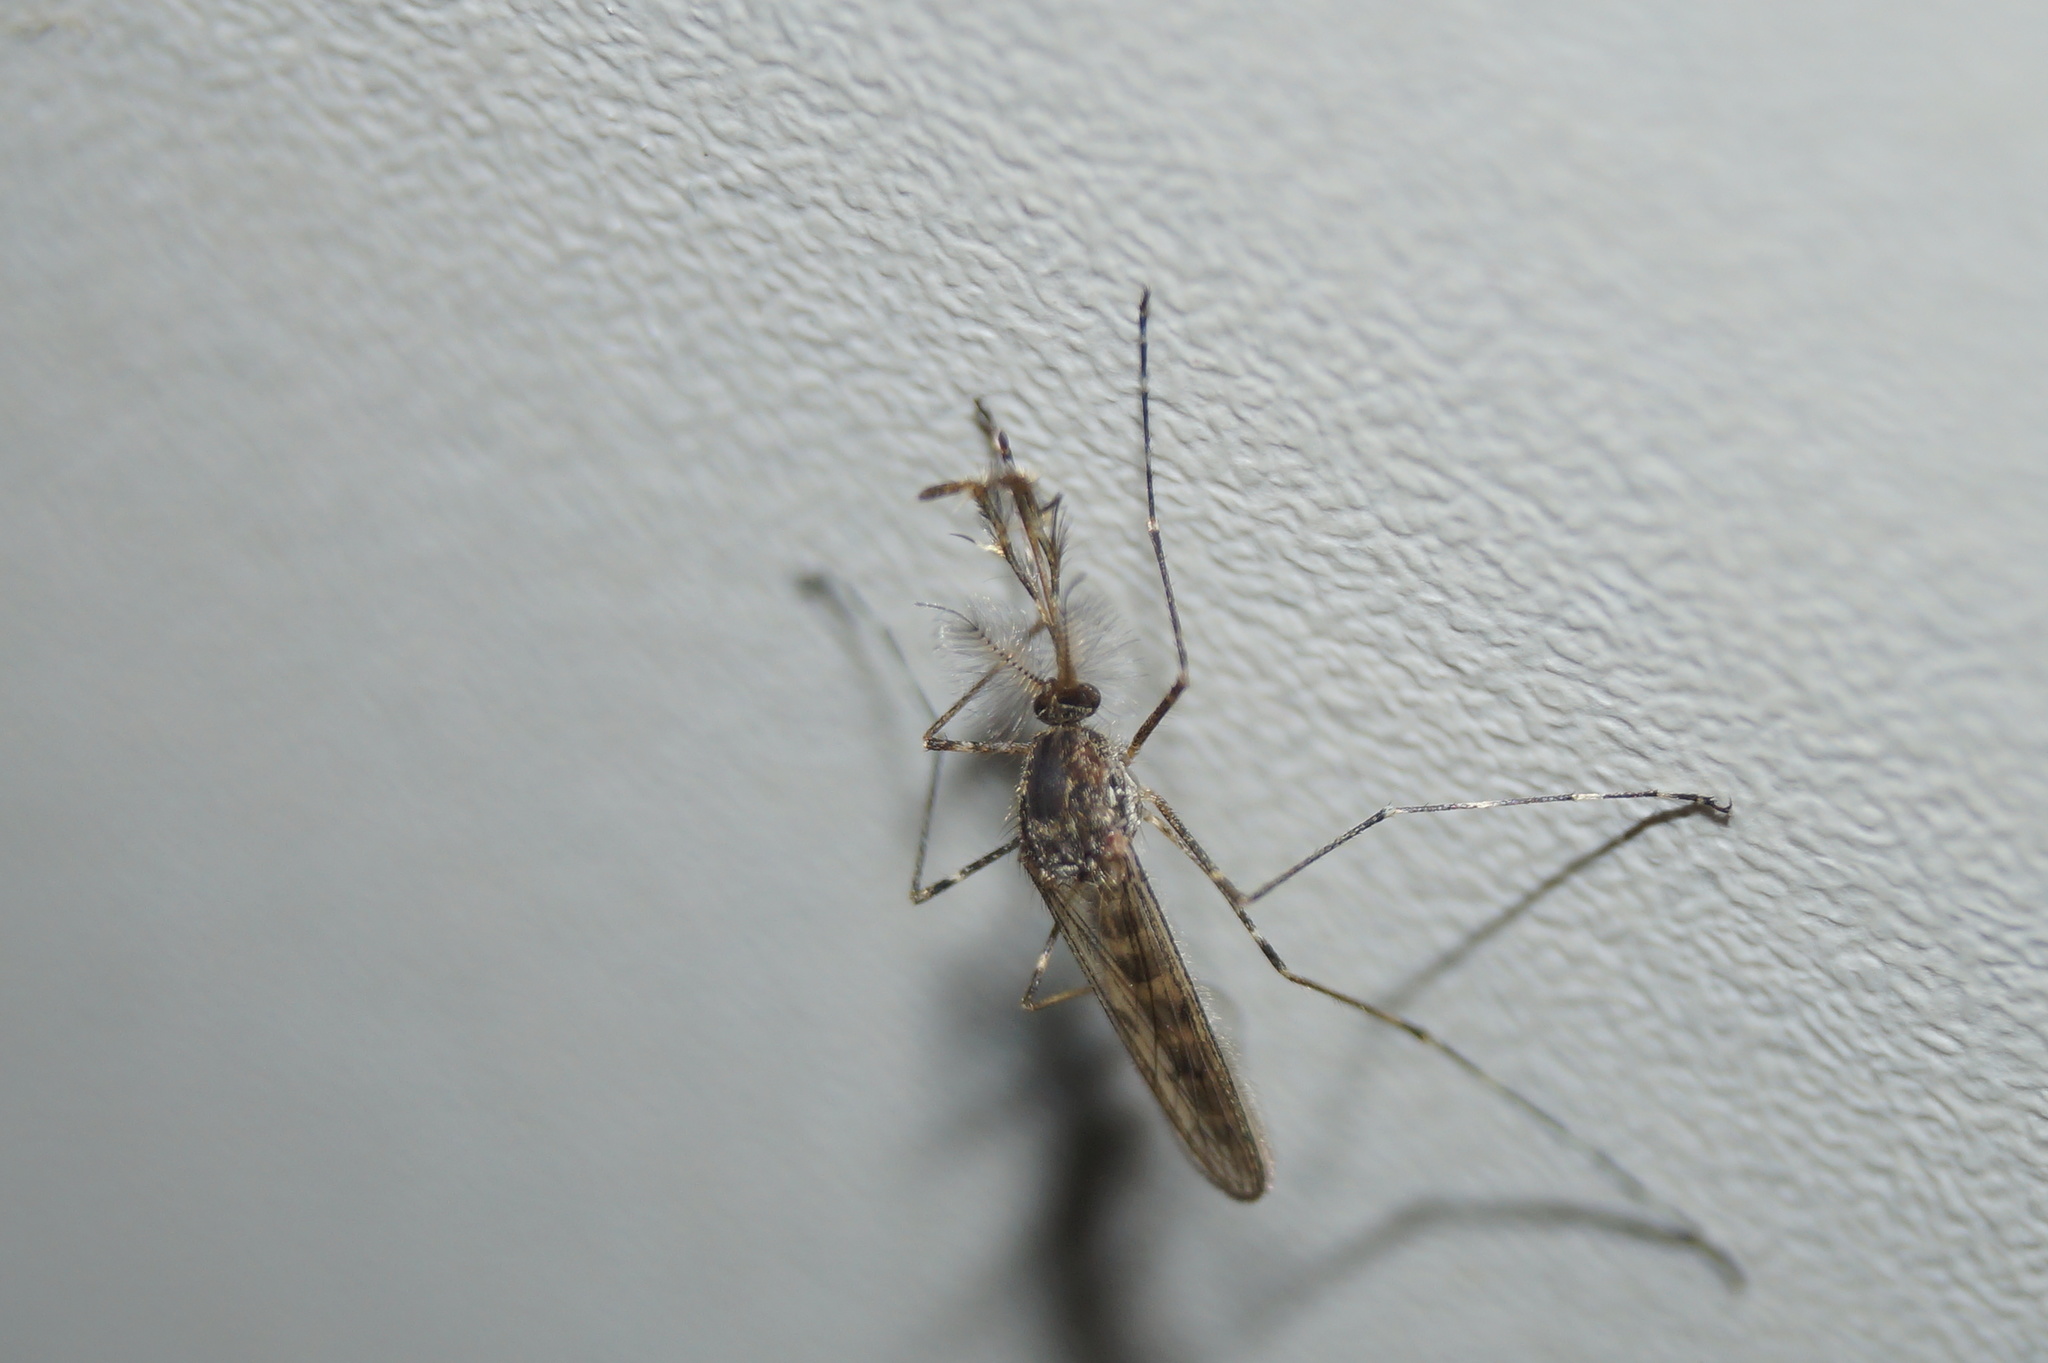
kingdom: Animalia
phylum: Arthropoda
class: Insecta
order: Diptera
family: Culicidae
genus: Culiseta
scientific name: Culiseta annulata
